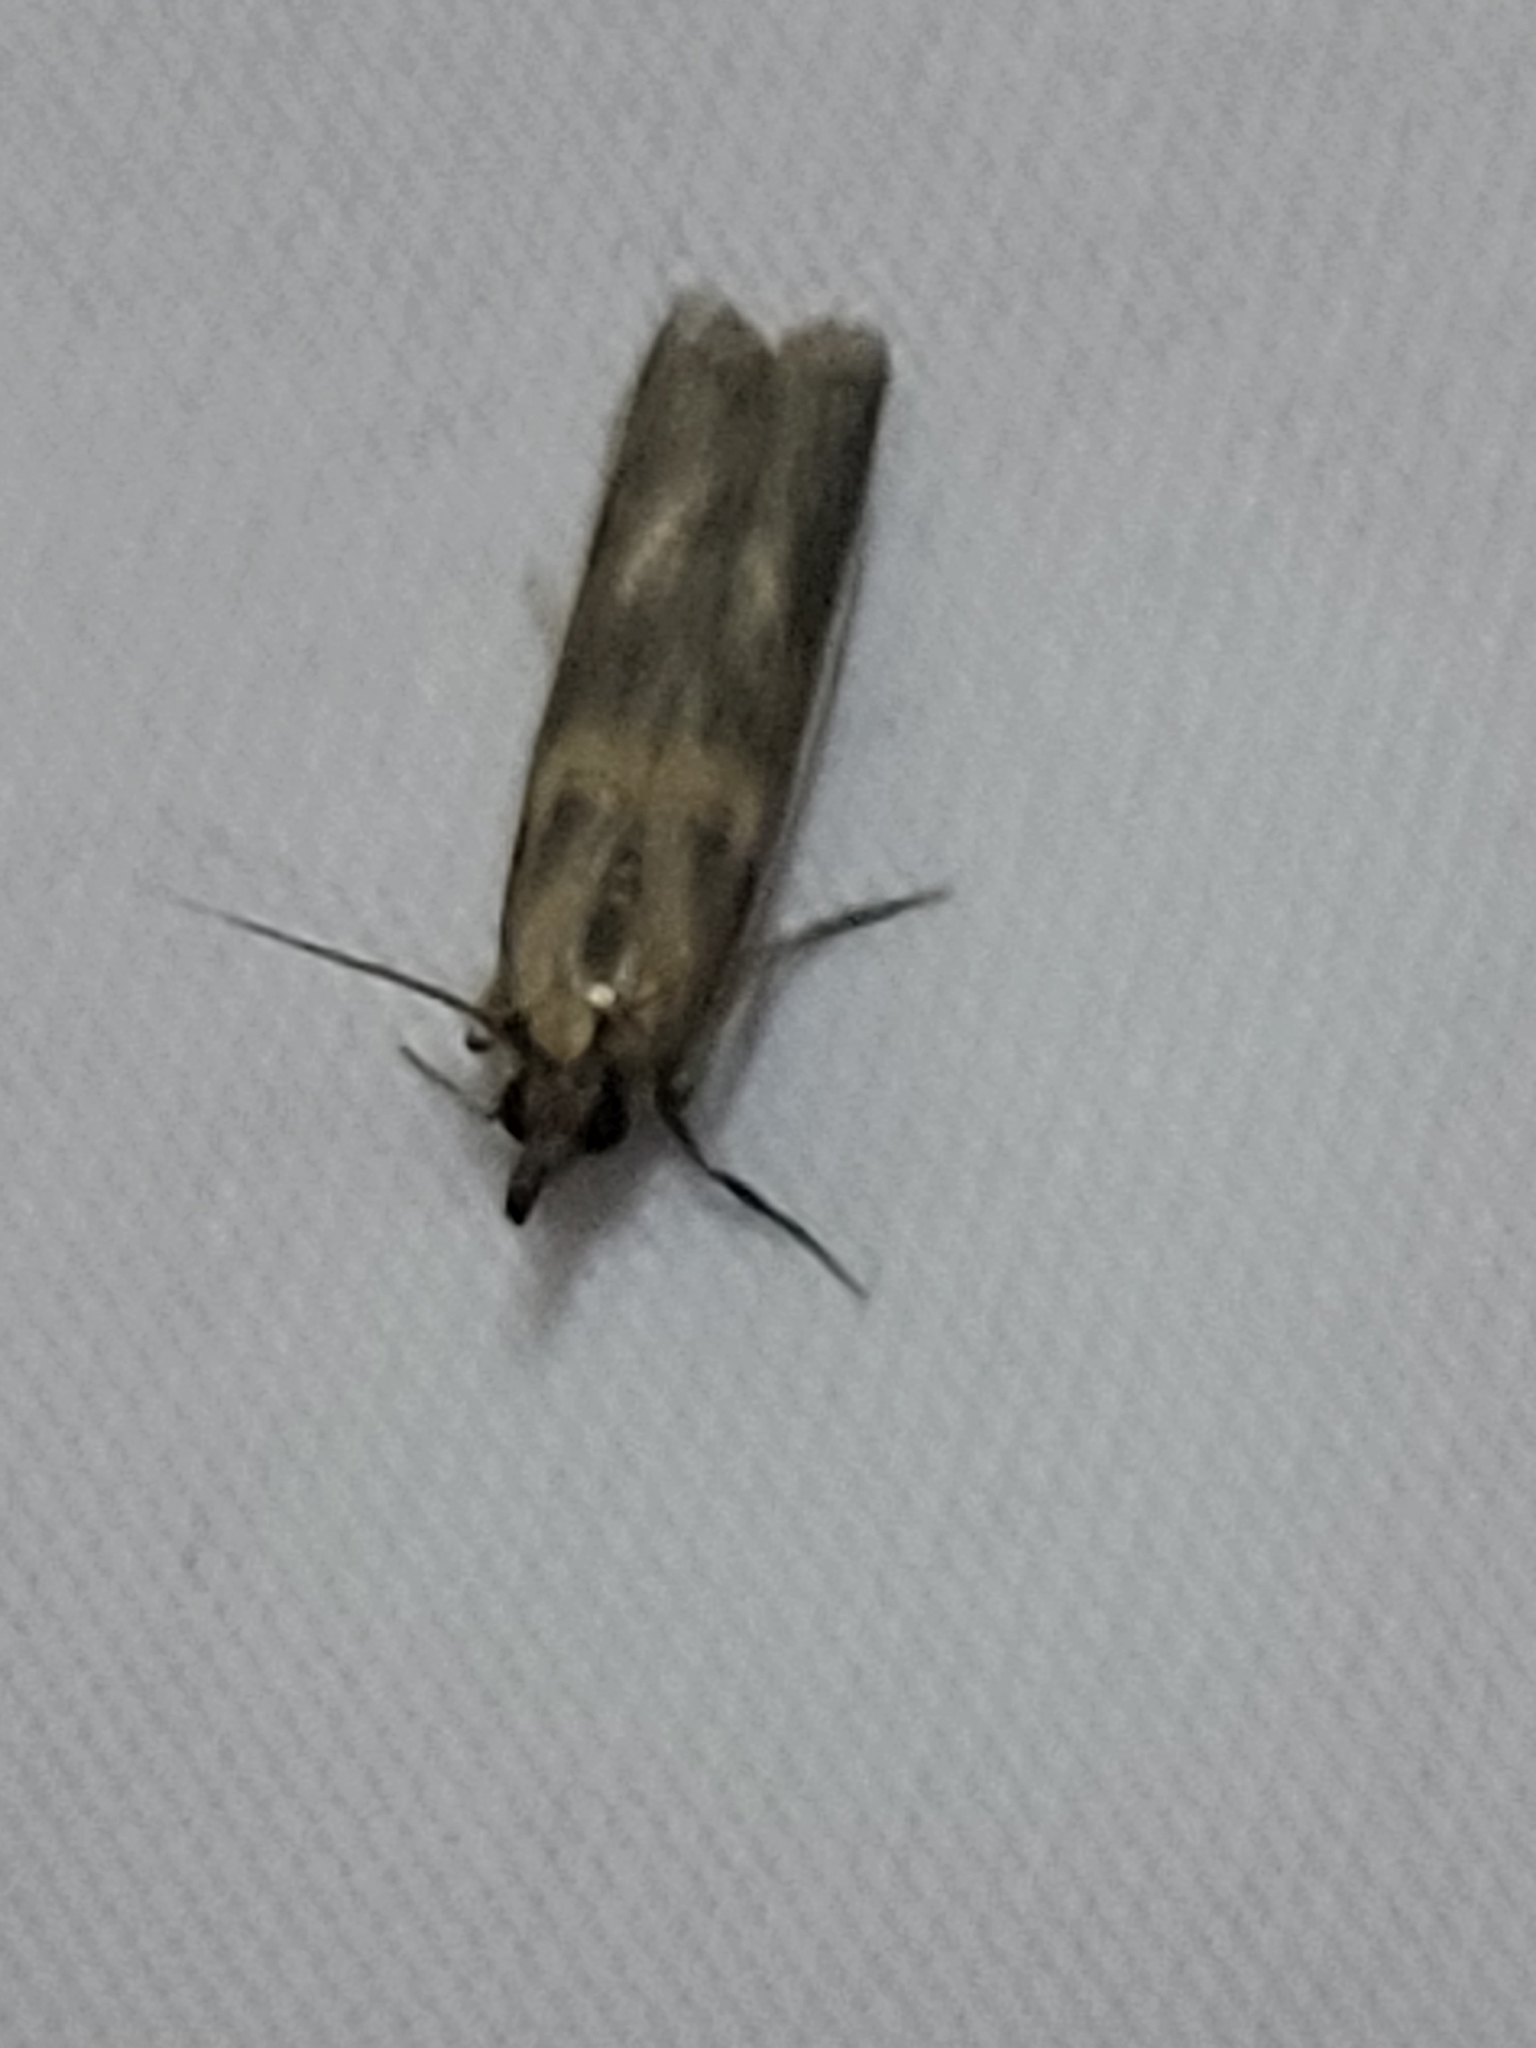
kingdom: Animalia
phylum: Arthropoda
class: Insecta
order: Lepidoptera
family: Pyralidae
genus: Etiella
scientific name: Etiella zinckenella
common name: Gold-banded etiella moth
